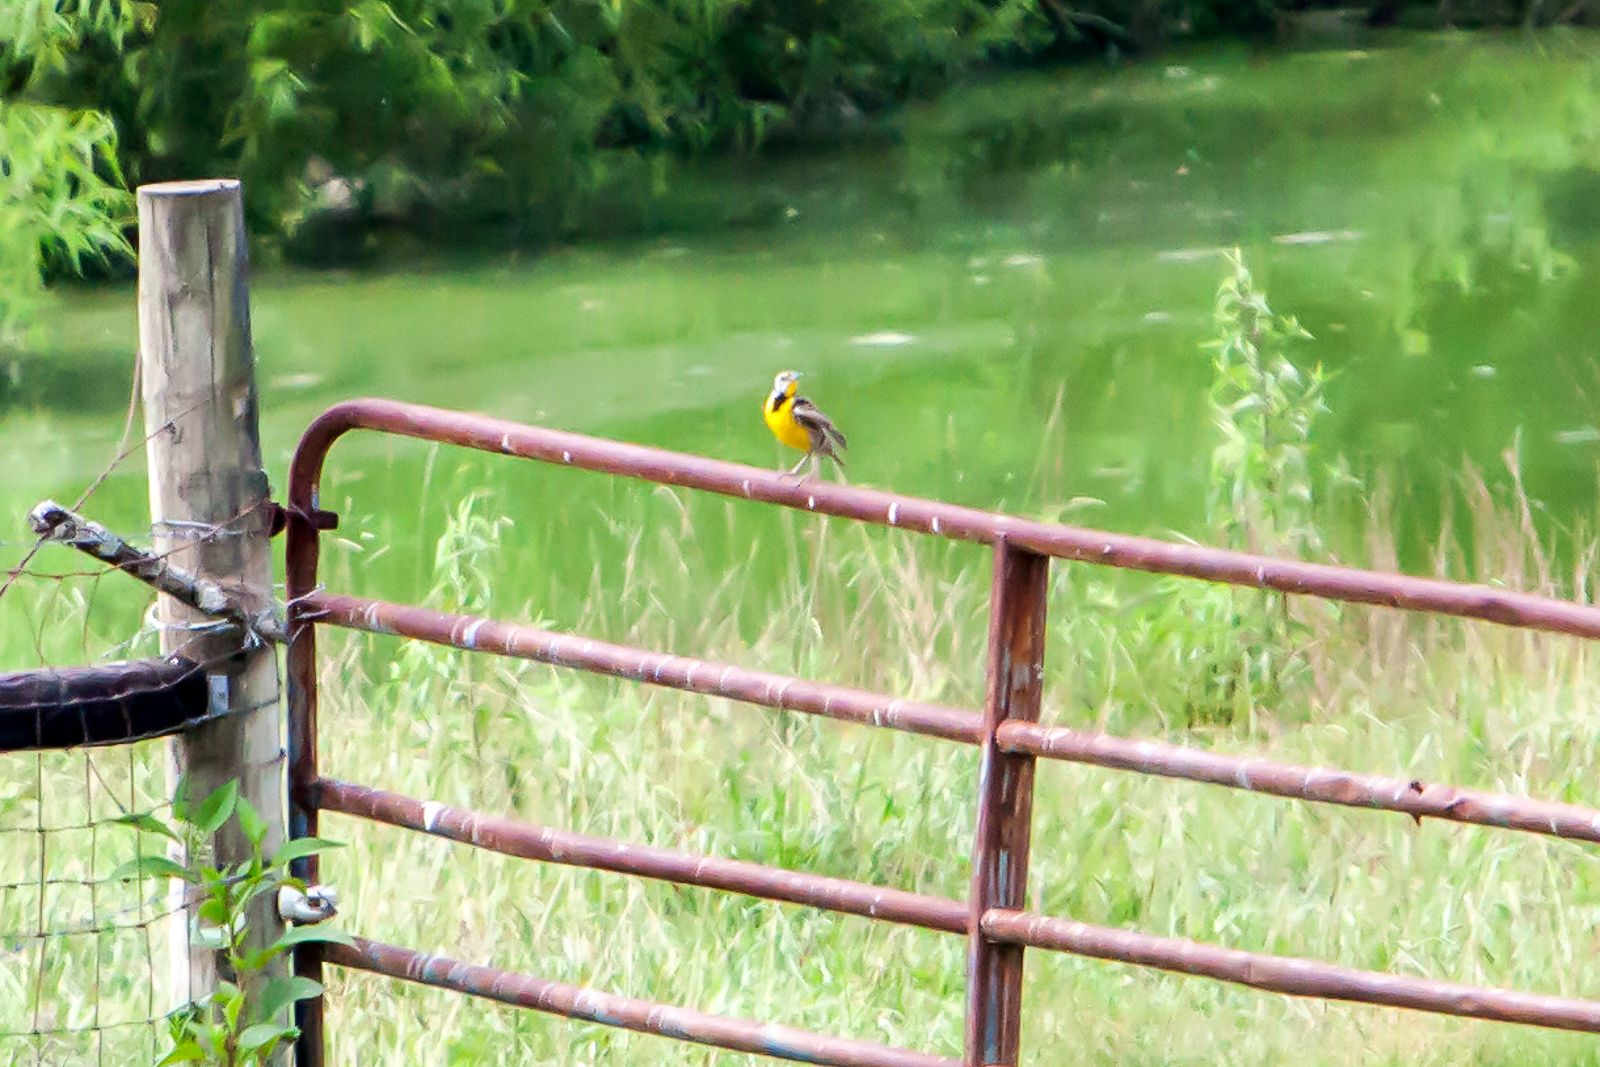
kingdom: Animalia
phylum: Chordata
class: Aves
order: Passeriformes
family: Icteridae
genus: Sturnella
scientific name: Sturnella magna
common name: Eastern meadowlark
